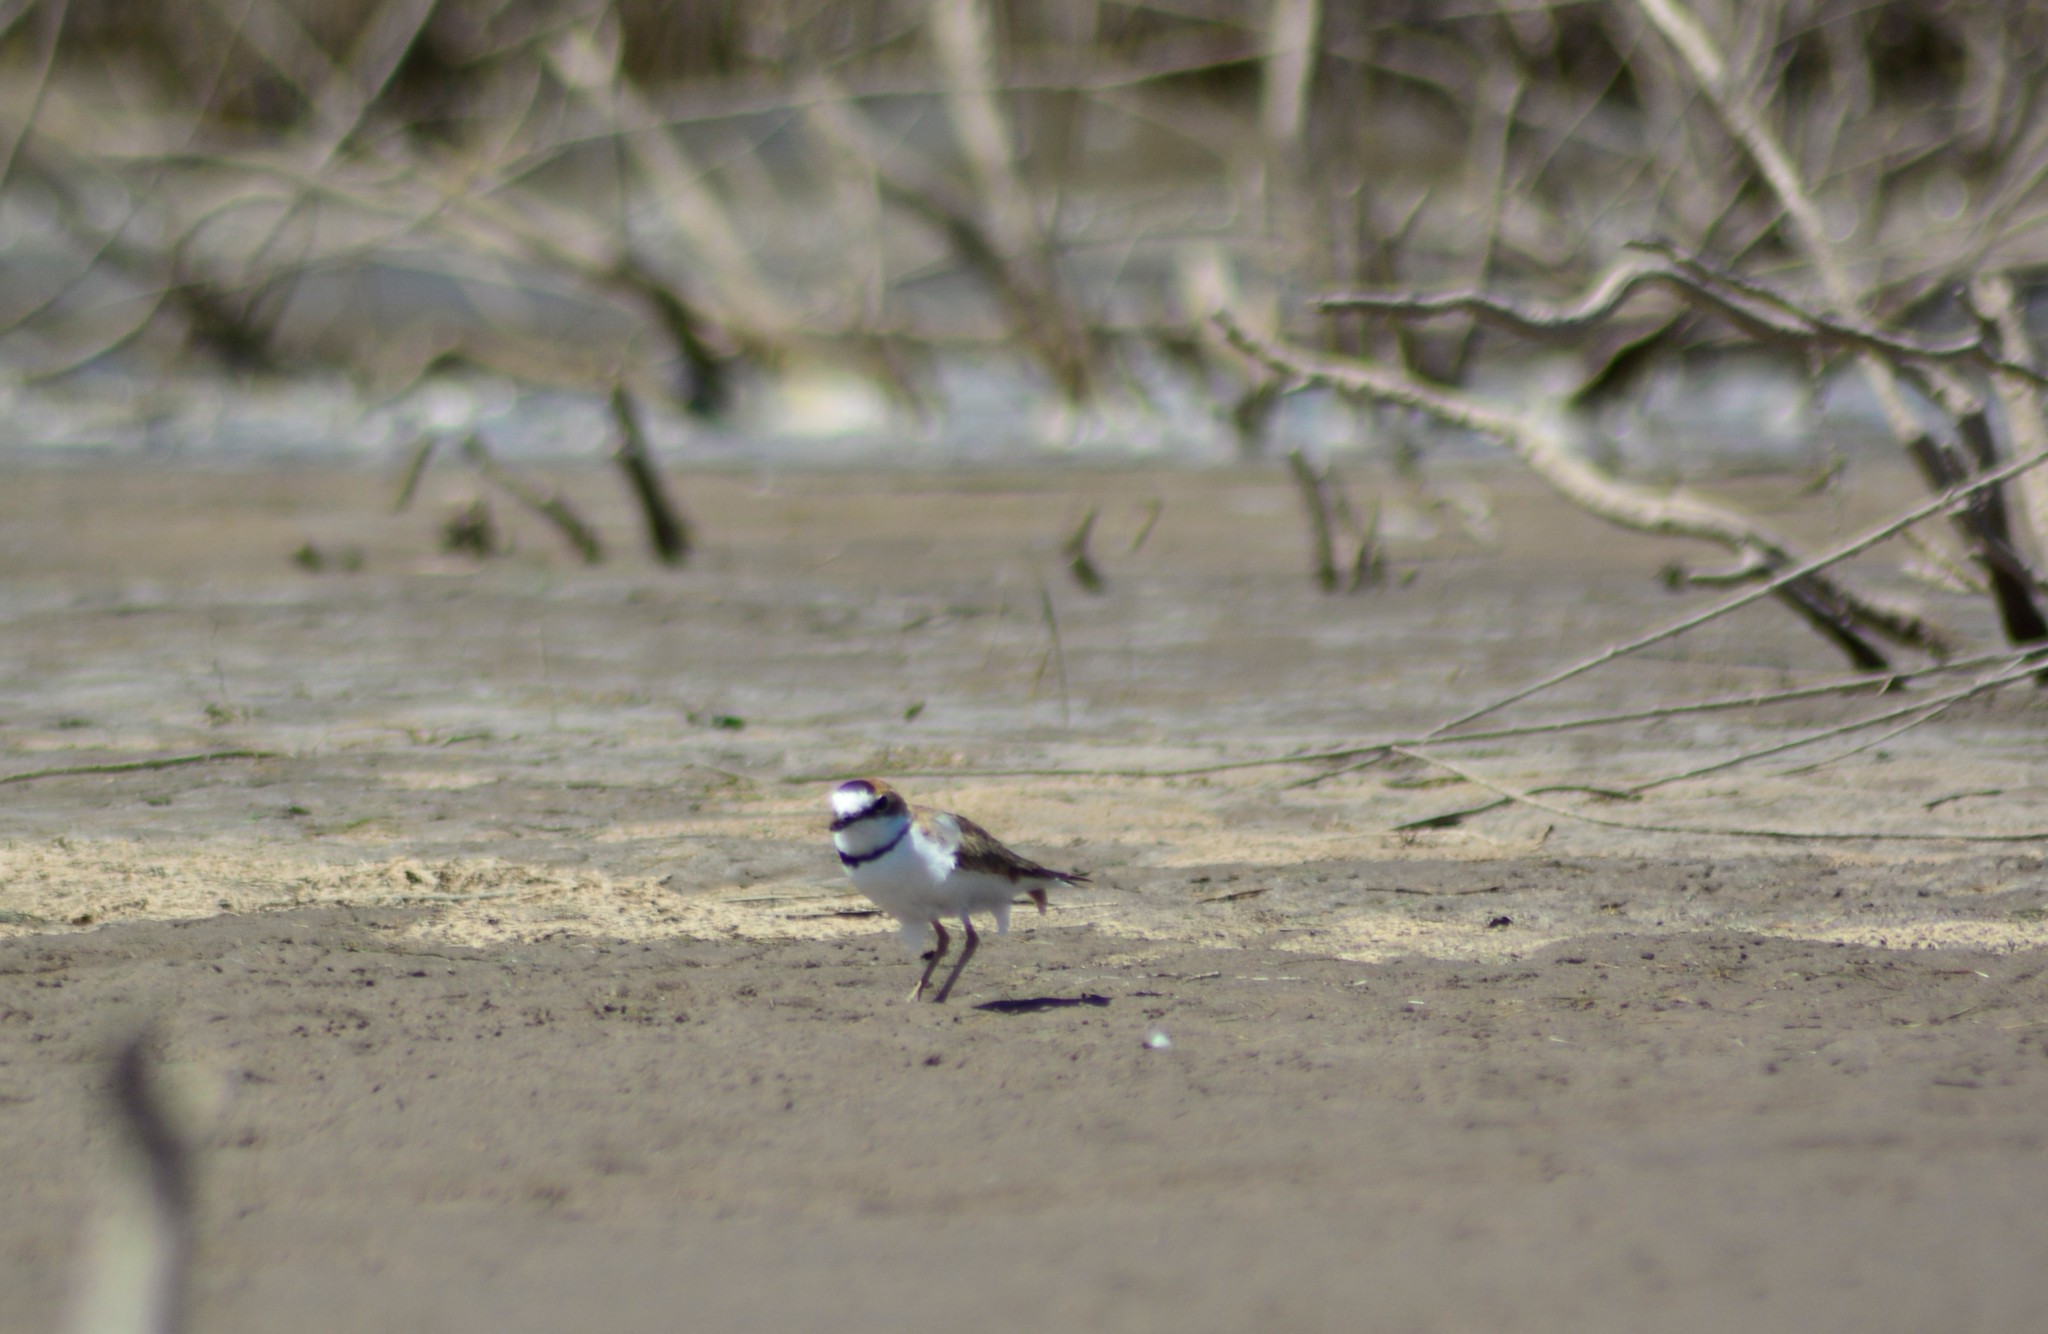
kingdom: Animalia
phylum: Chordata
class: Aves
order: Charadriiformes
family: Charadriidae
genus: Anarhynchus
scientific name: Anarhynchus
